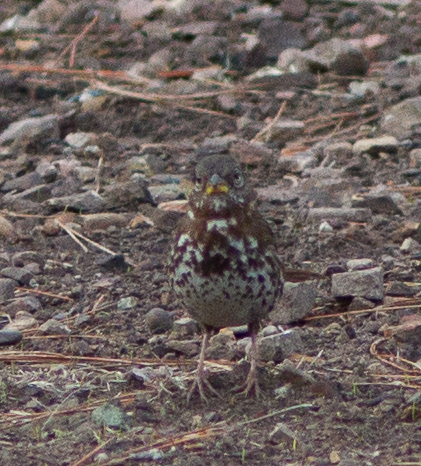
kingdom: Animalia
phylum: Chordata
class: Aves
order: Passeriformes
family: Passerellidae
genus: Passerella
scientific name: Passerella iliaca
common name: Fox sparrow
